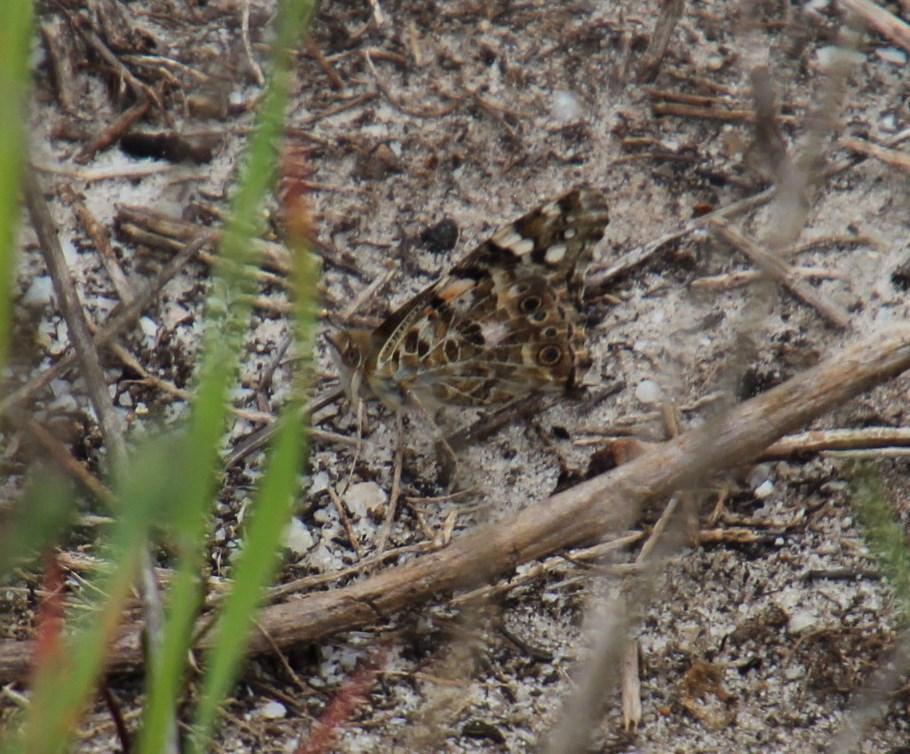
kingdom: Animalia
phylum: Arthropoda
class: Insecta
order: Lepidoptera
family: Nymphalidae
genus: Vanessa
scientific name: Vanessa cardui
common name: Painted lady
